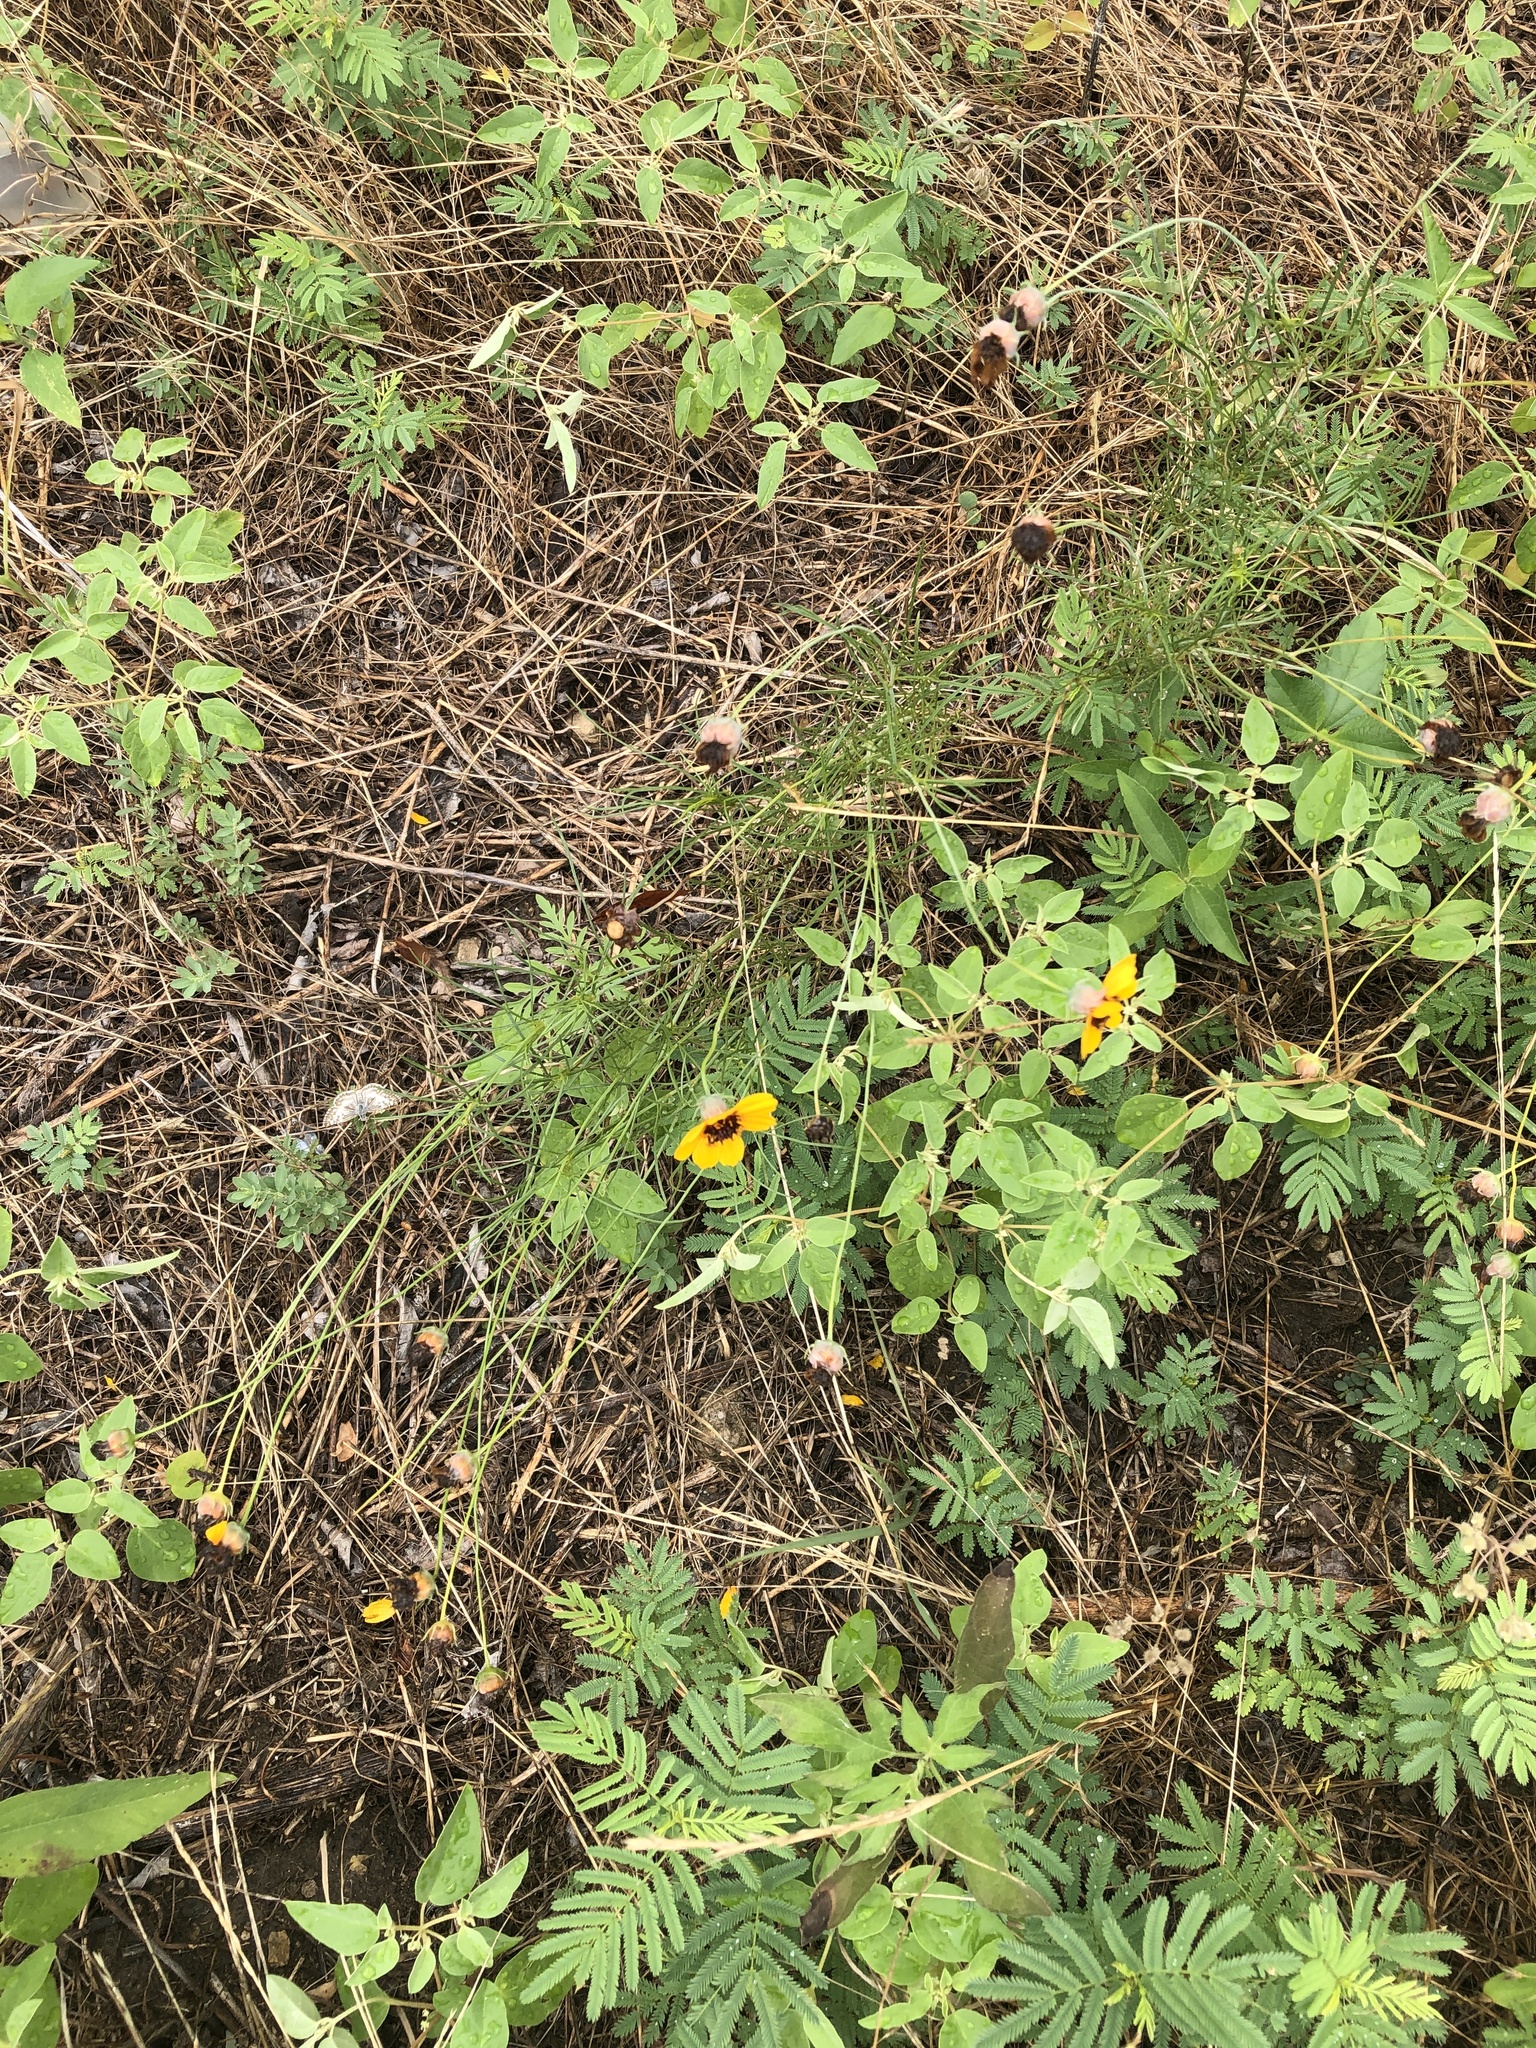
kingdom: Plantae
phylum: Tracheophyta
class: Magnoliopsida
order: Asterales
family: Asteraceae
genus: Thelesperma
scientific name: Thelesperma filifolium
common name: Stiff greenthread
